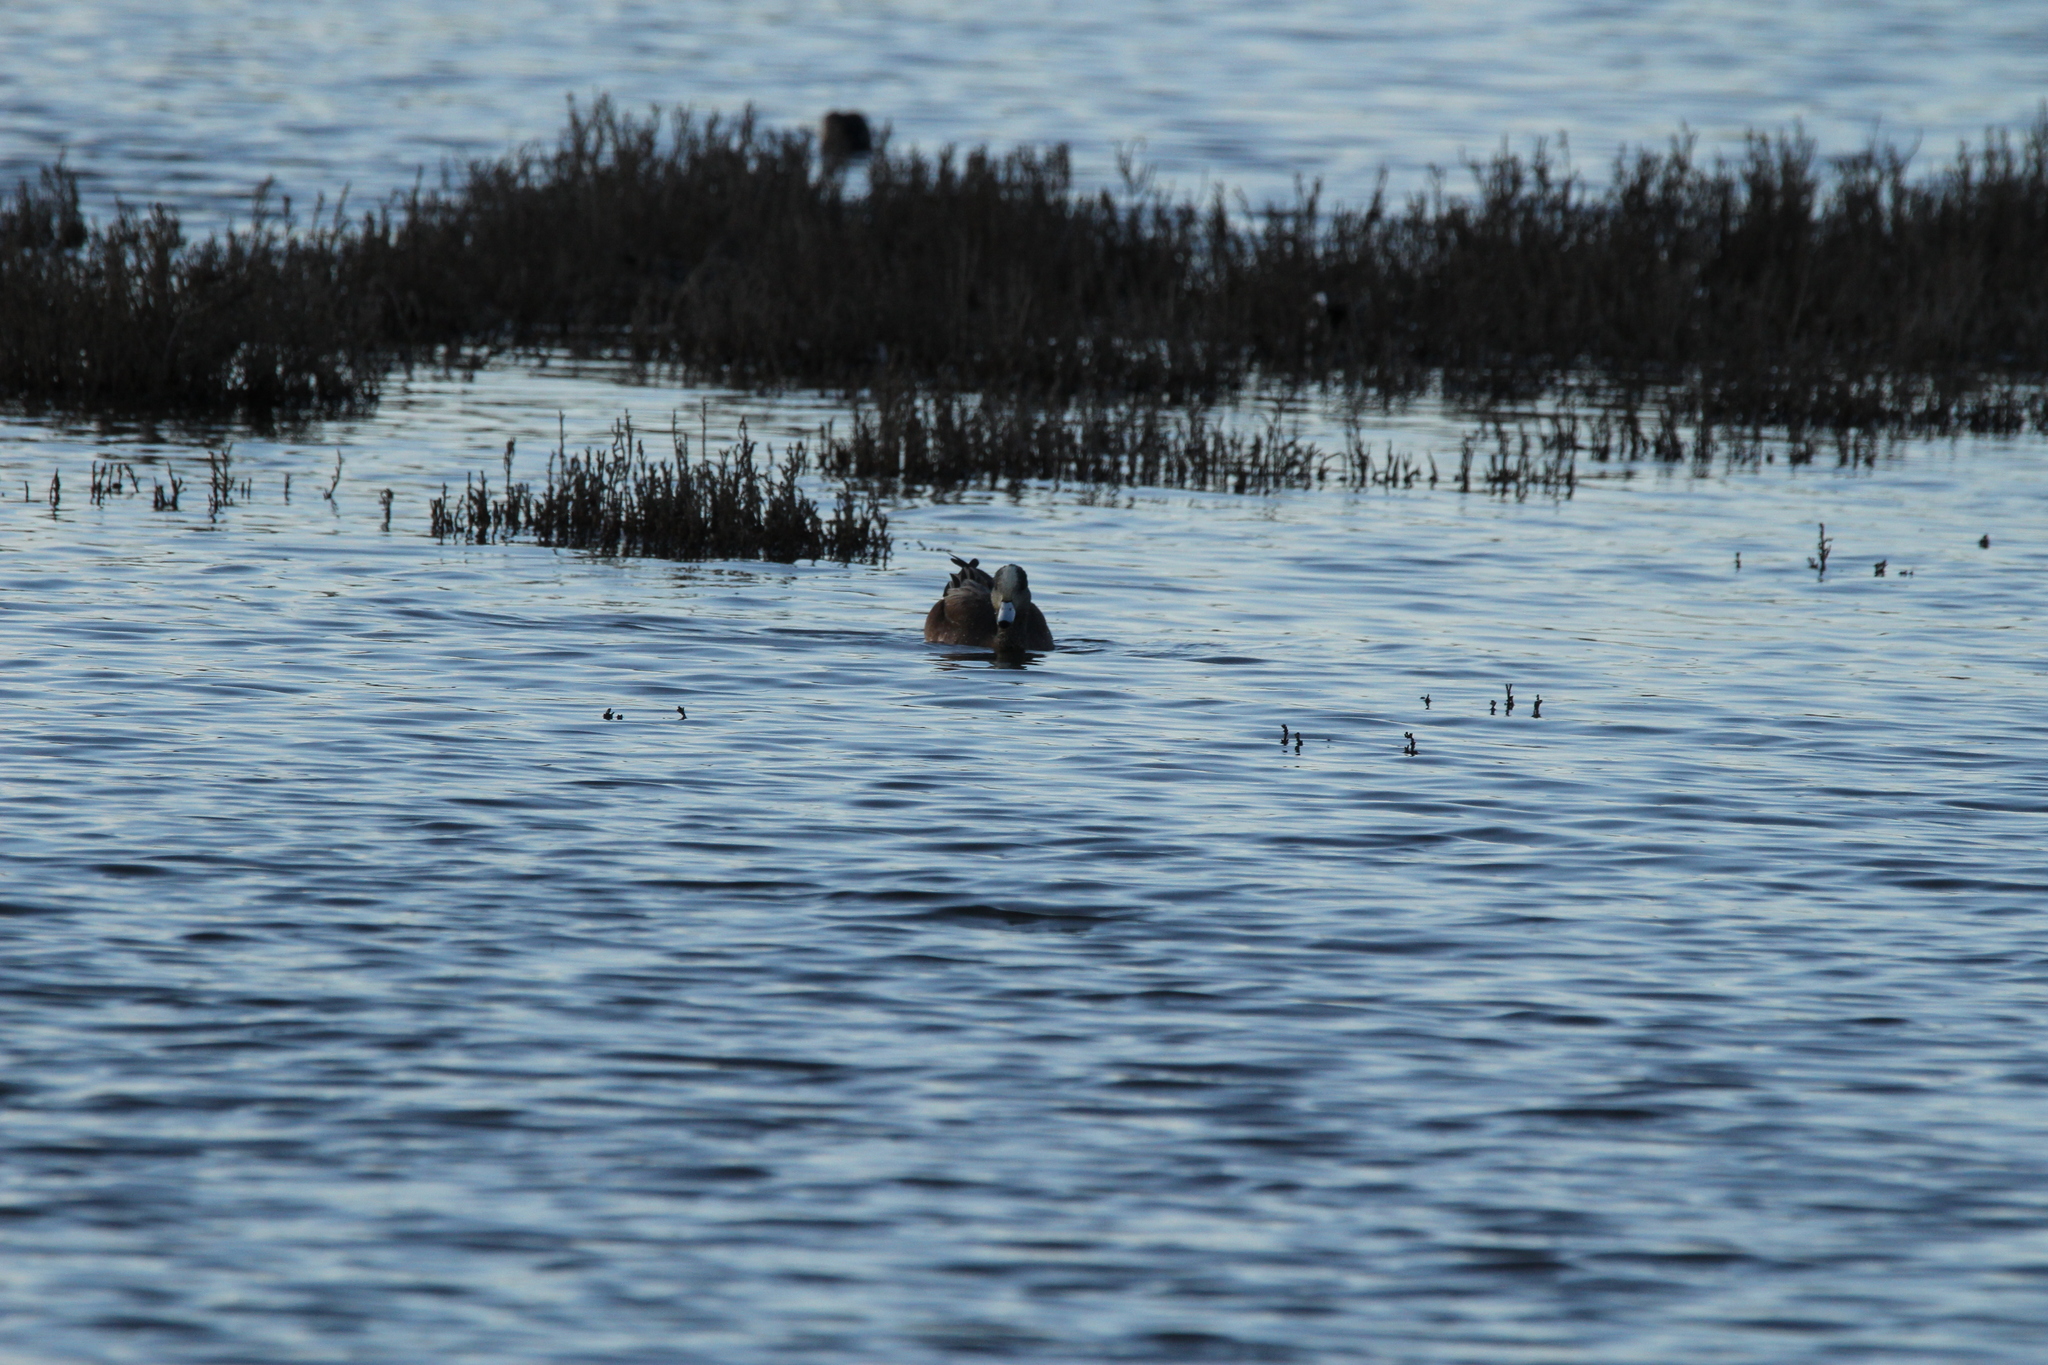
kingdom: Animalia
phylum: Chordata
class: Aves
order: Anseriformes
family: Anatidae
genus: Mareca
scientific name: Mareca americana
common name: American wigeon
